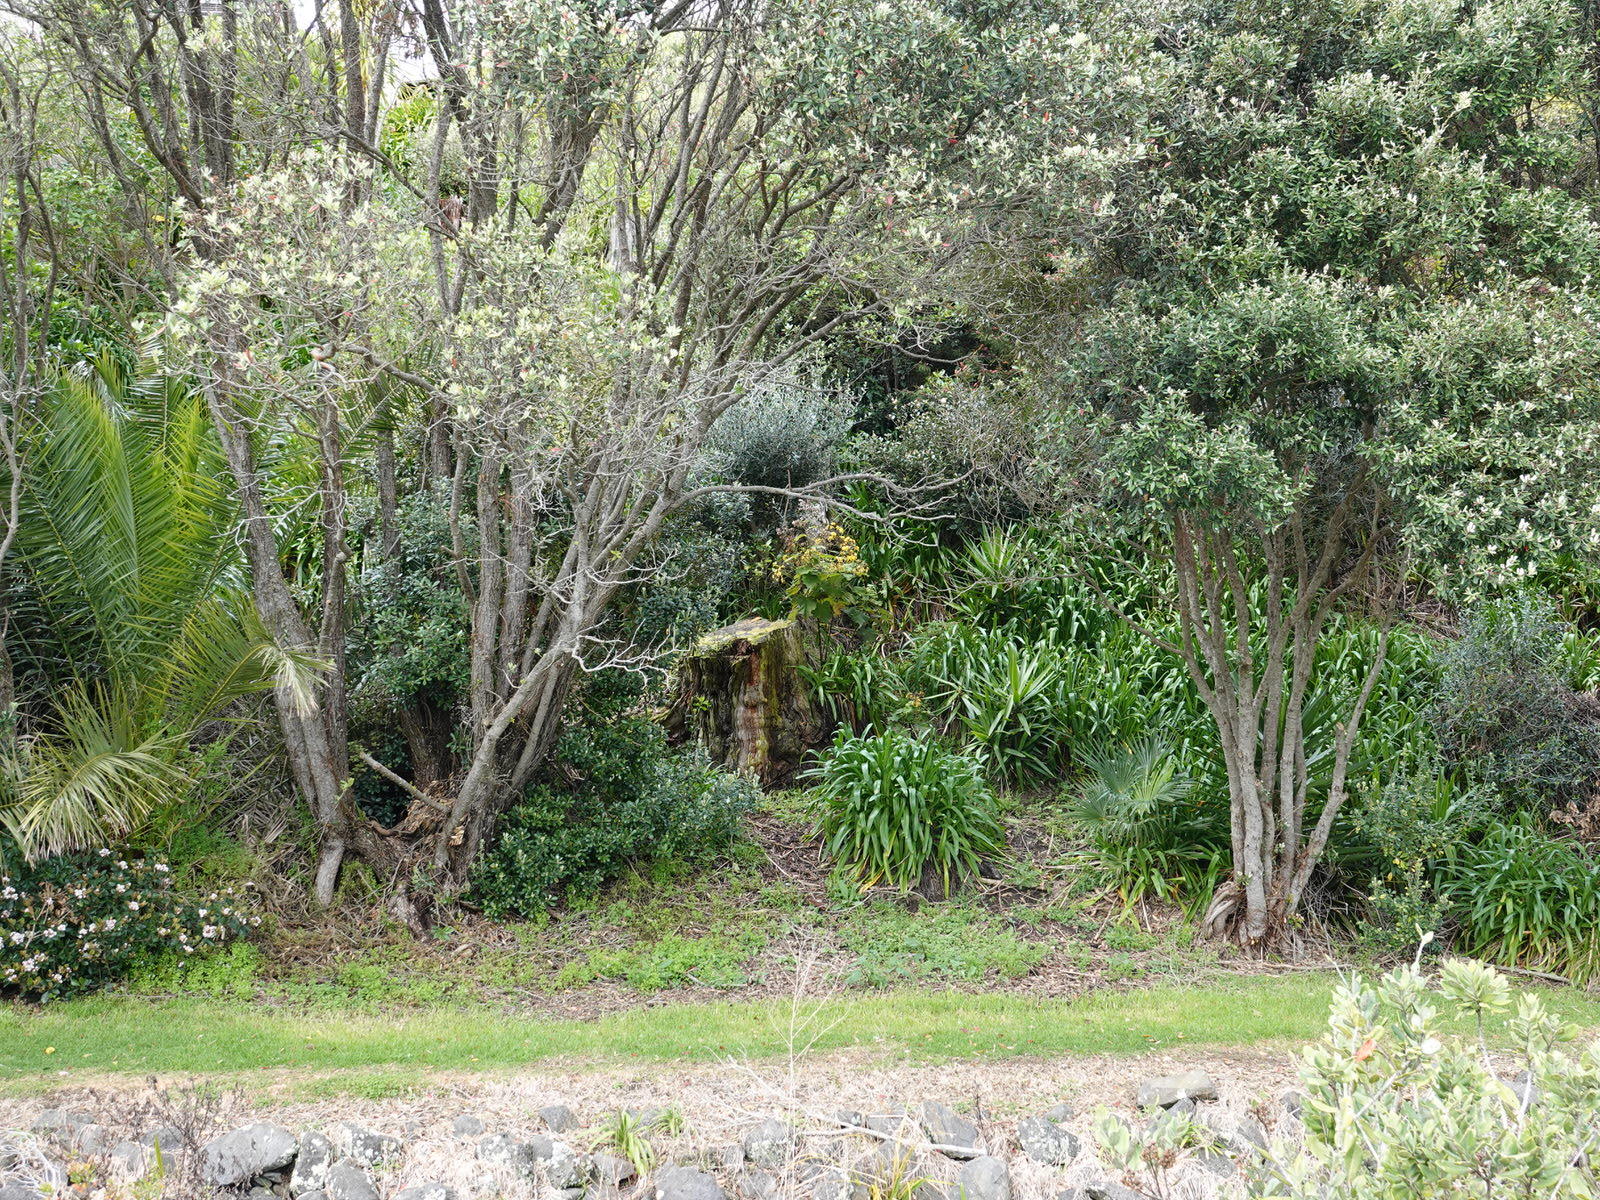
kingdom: Plantae
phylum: Tracheophyta
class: Magnoliopsida
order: Asterales
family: Asteraceae
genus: Roldana
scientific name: Roldana petasitis
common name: California-geranium
